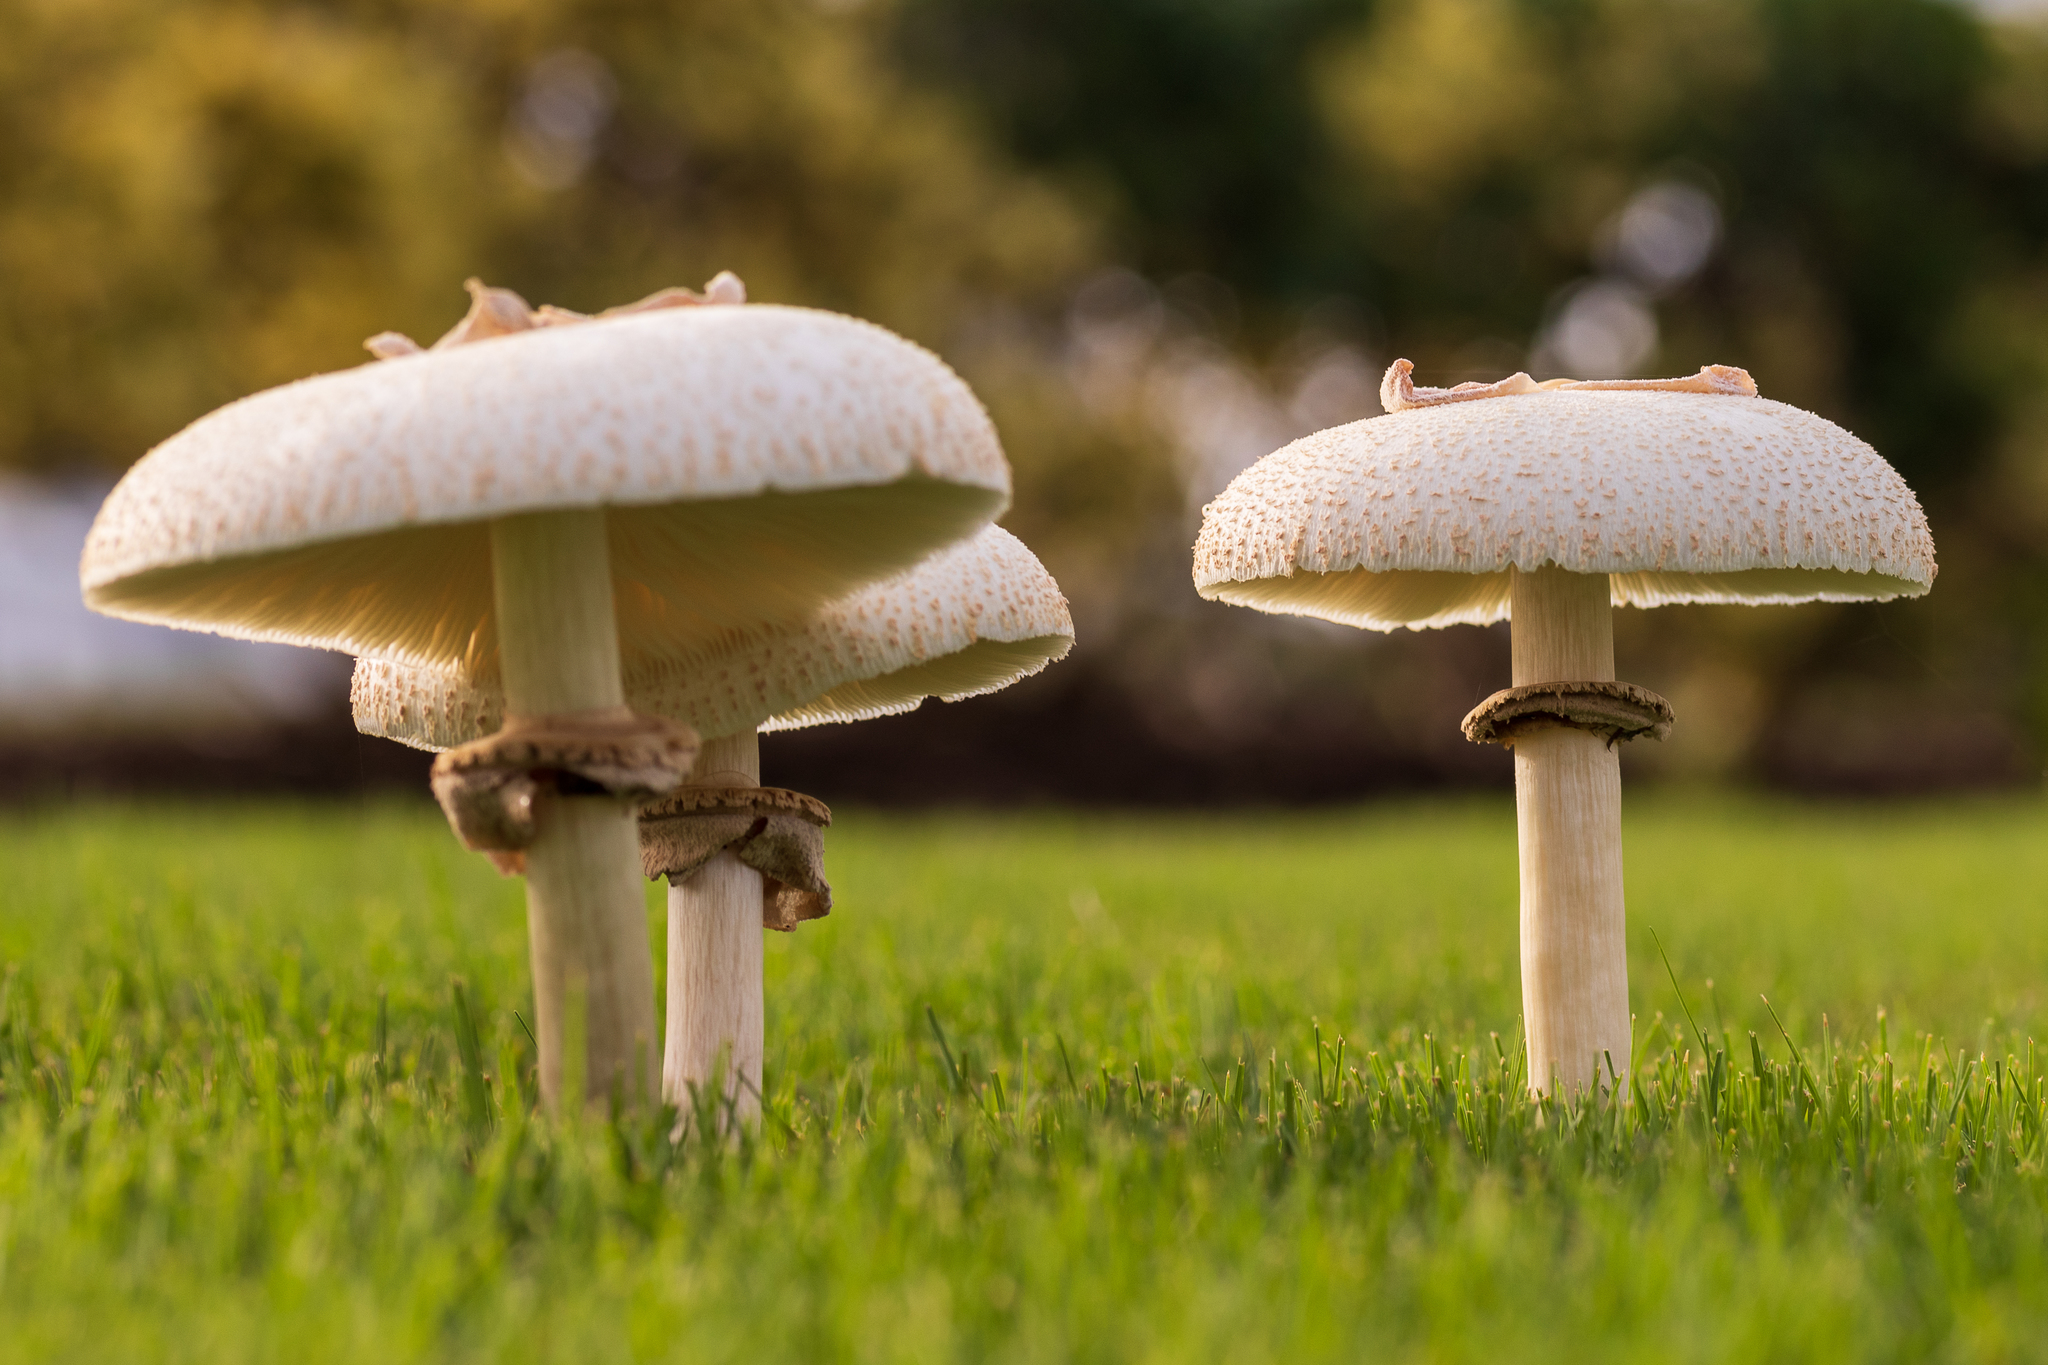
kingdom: Fungi
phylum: Basidiomycota
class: Agaricomycetes
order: Agaricales
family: Agaricaceae
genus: Chlorophyllum
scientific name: Chlorophyllum molybdites
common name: False parasol
